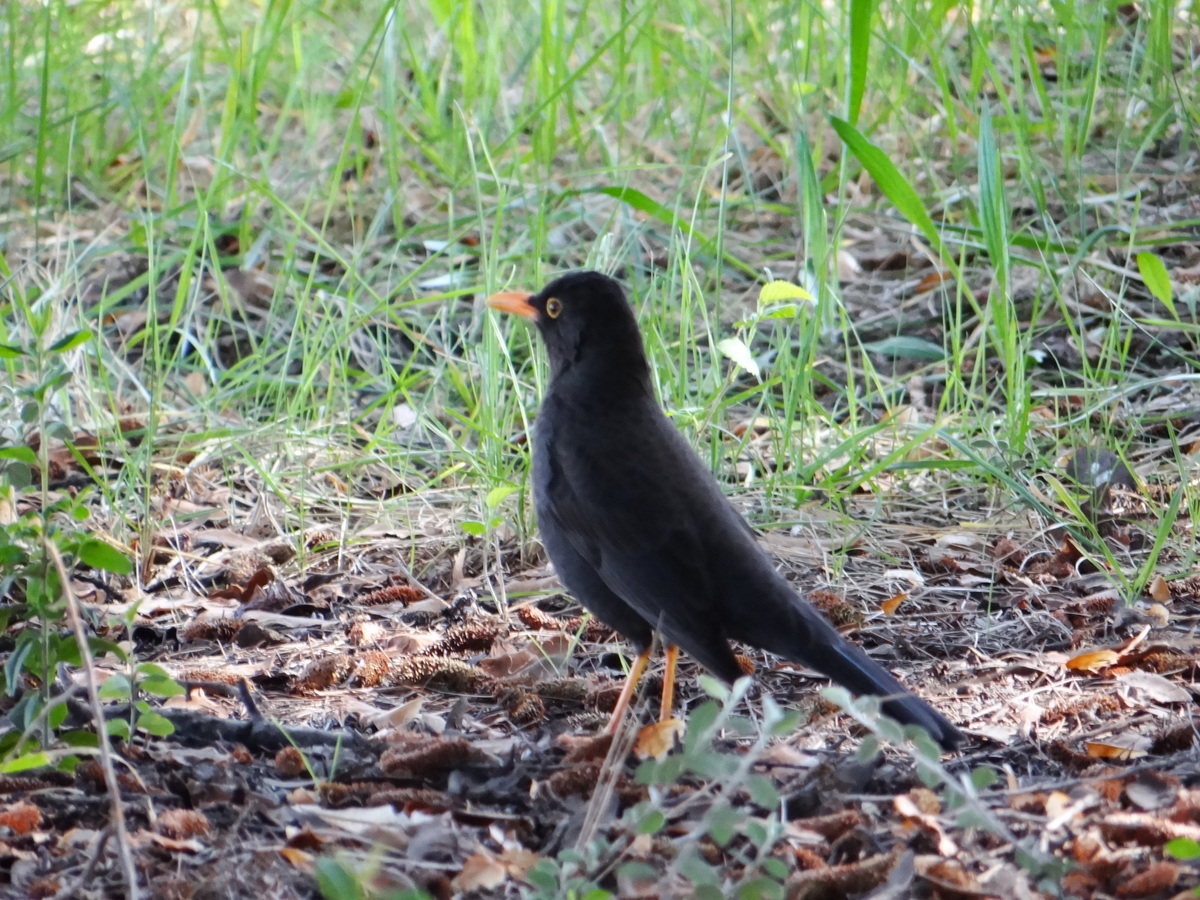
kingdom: Animalia
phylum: Chordata
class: Aves
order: Passeriformes
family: Turdidae
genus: Turdus
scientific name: Turdus chiguanco
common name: Chiguanco thrush
